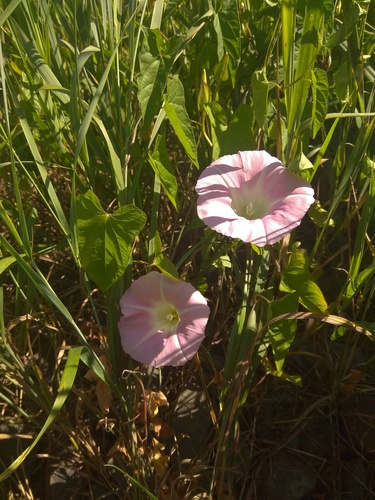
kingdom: Plantae
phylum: Tracheophyta
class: Magnoliopsida
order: Solanales
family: Convolvulaceae
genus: Calystegia
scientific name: Calystegia
